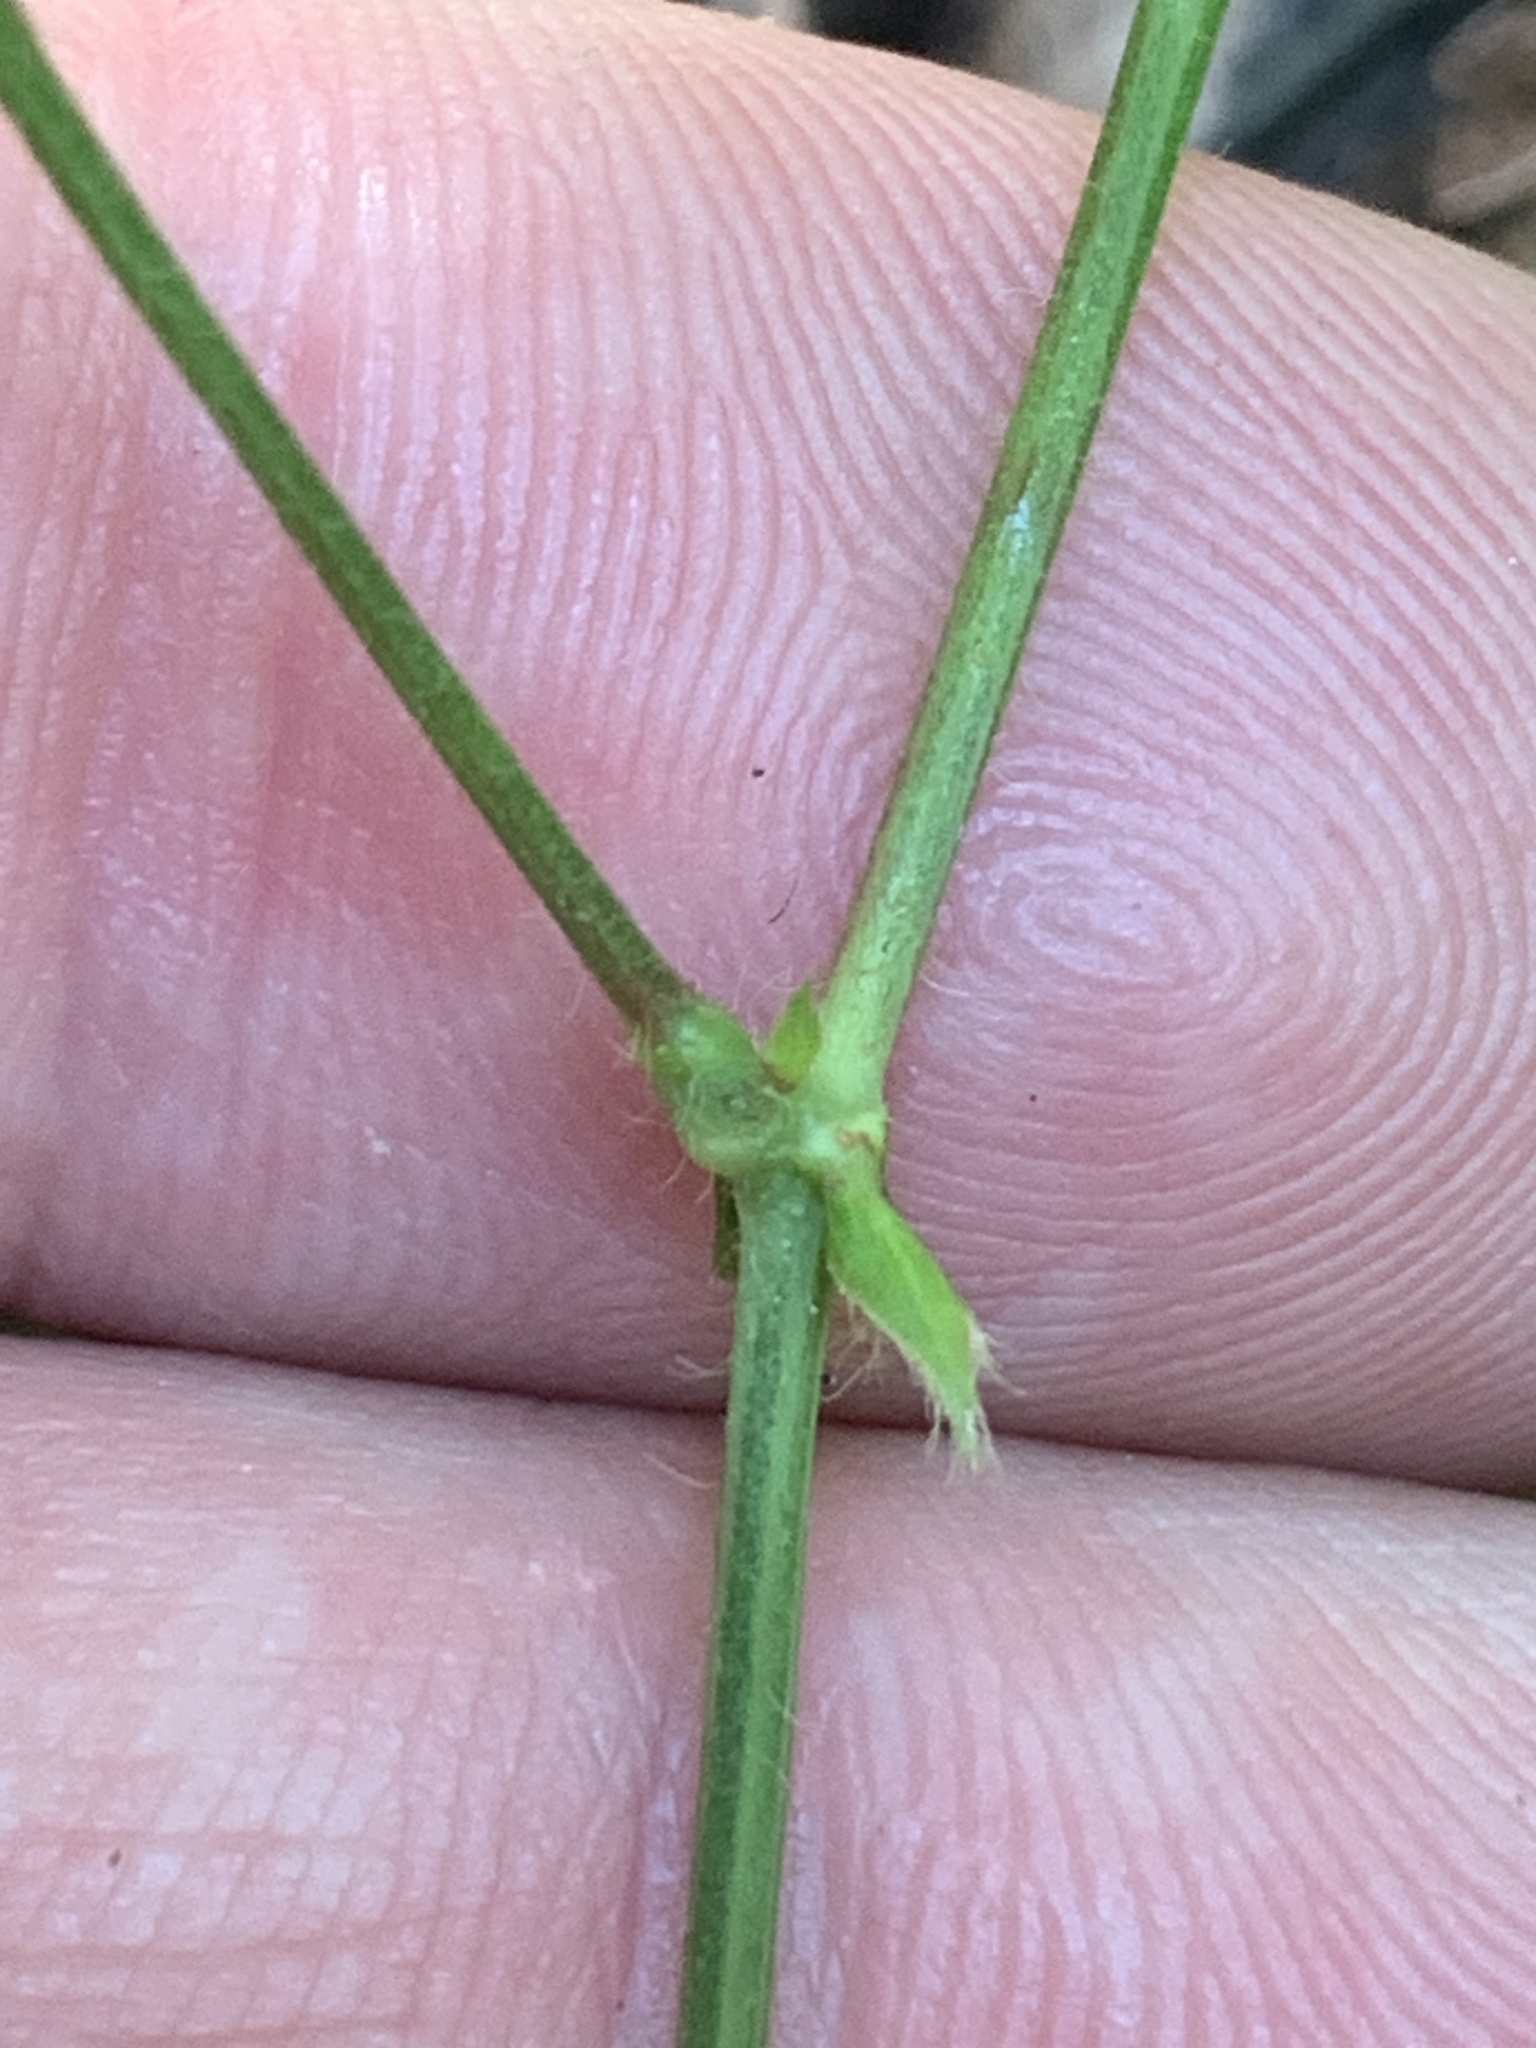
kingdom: Plantae
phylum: Tracheophyta
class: Magnoliopsida
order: Fabales
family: Fabaceae
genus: Desmodium
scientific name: Desmodium rotundifolium
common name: Dollarleaf
